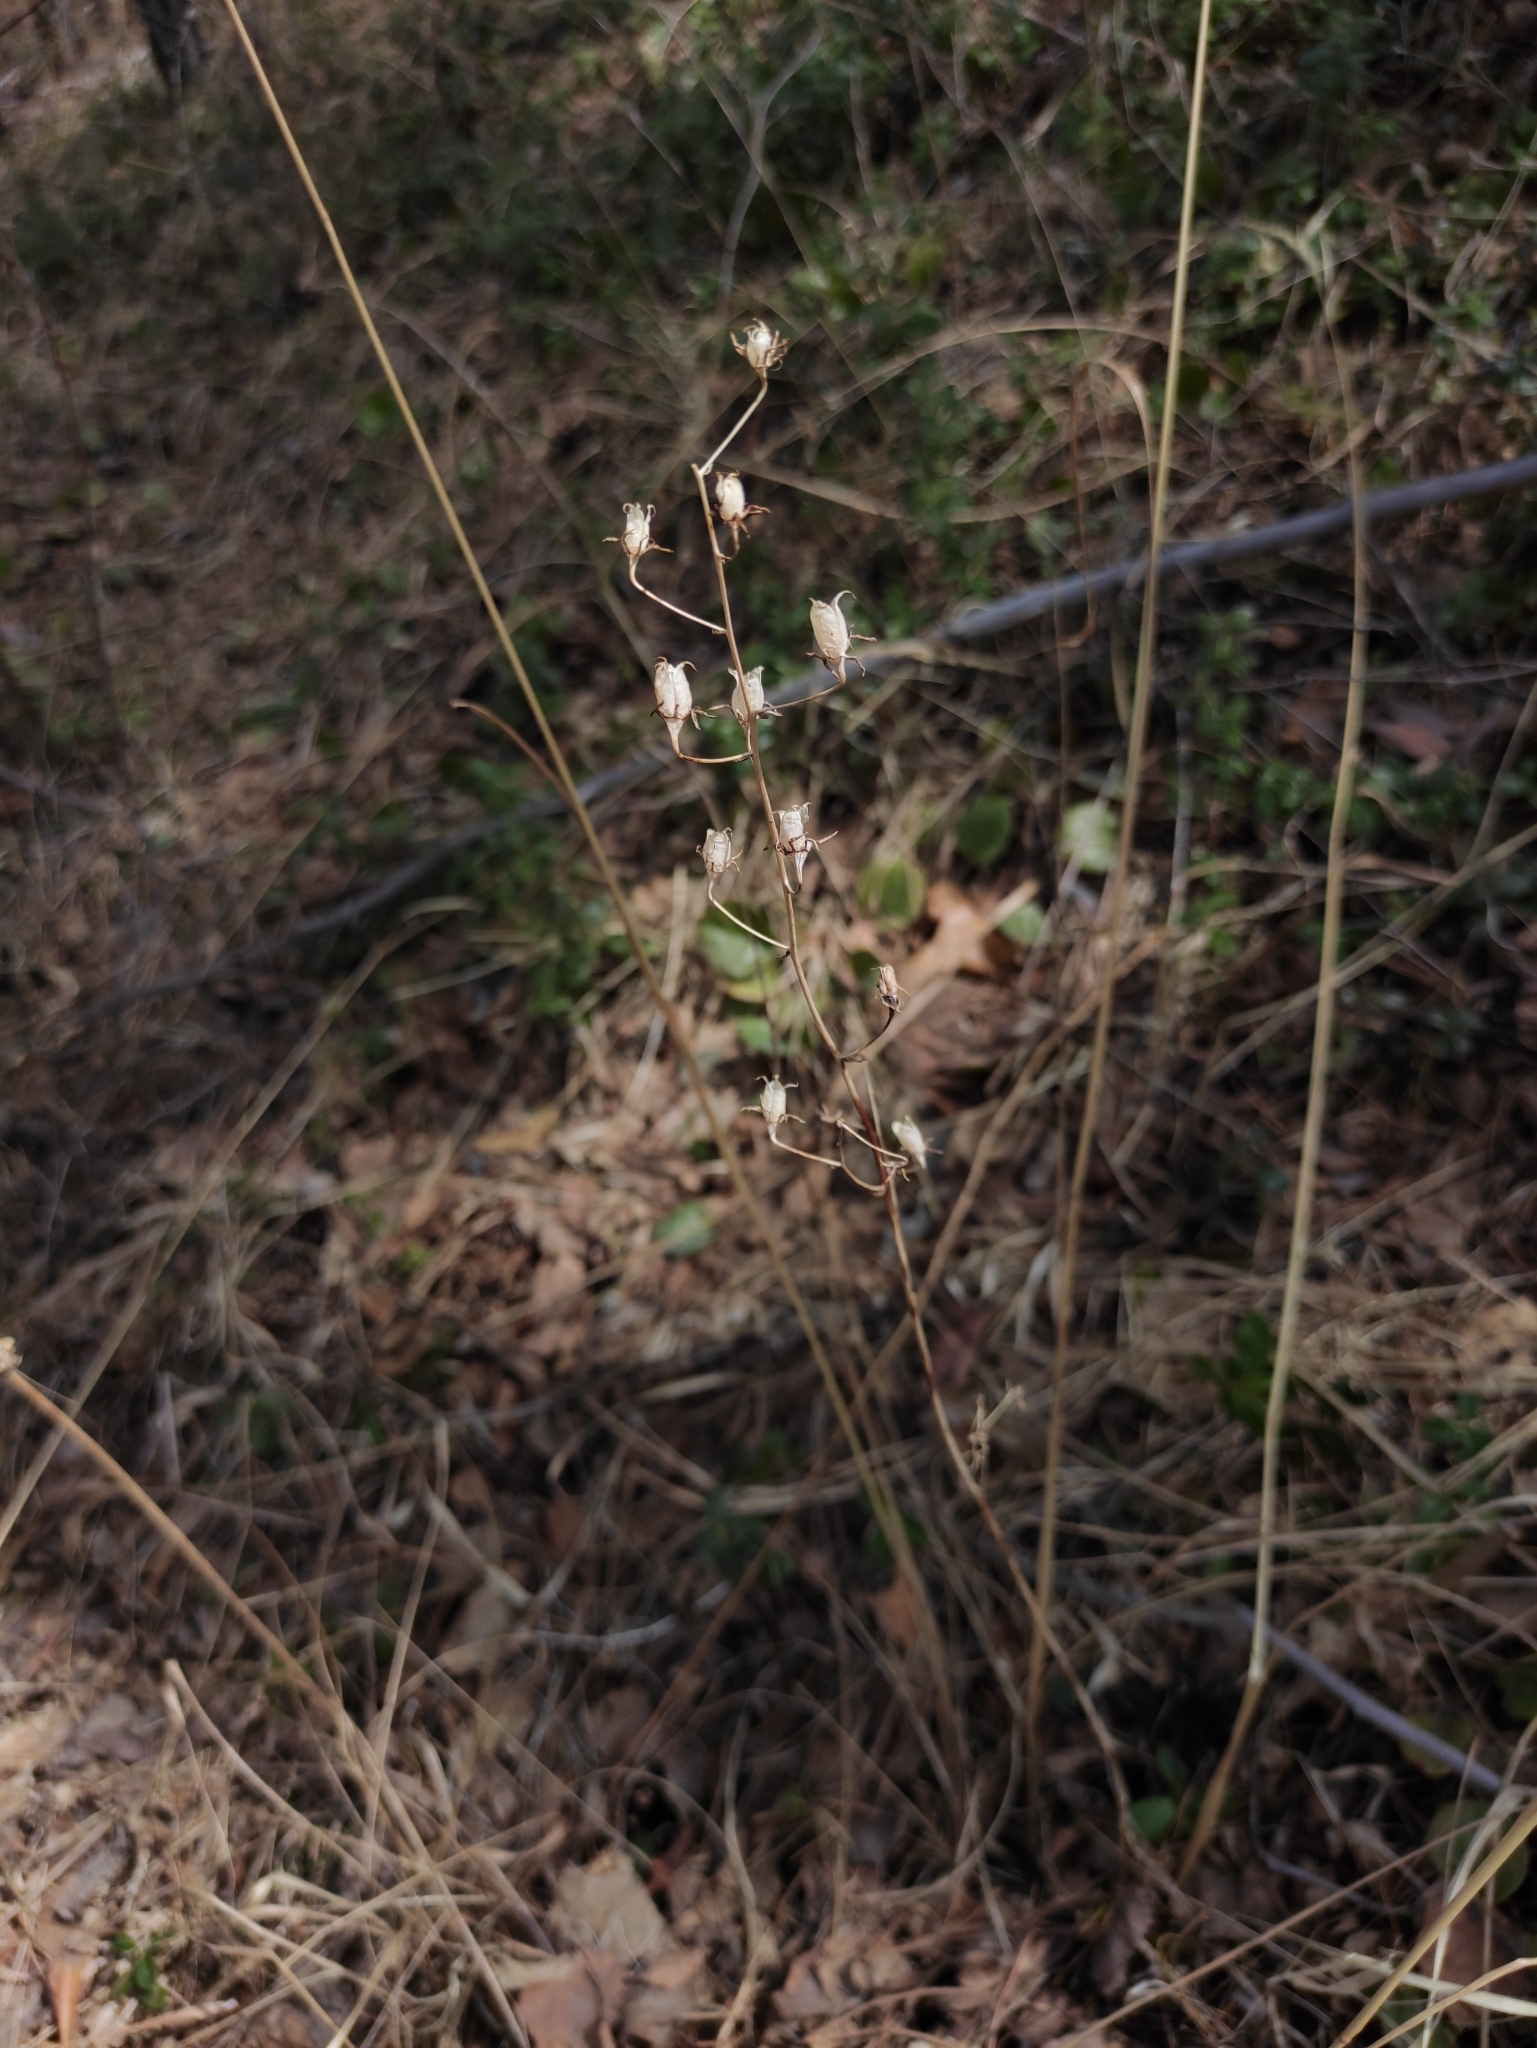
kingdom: Plantae
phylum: Tracheophyta
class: Liliopsida
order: Liliales
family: Melanthiaceae
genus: Anticlea
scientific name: Anticlea sibirica
